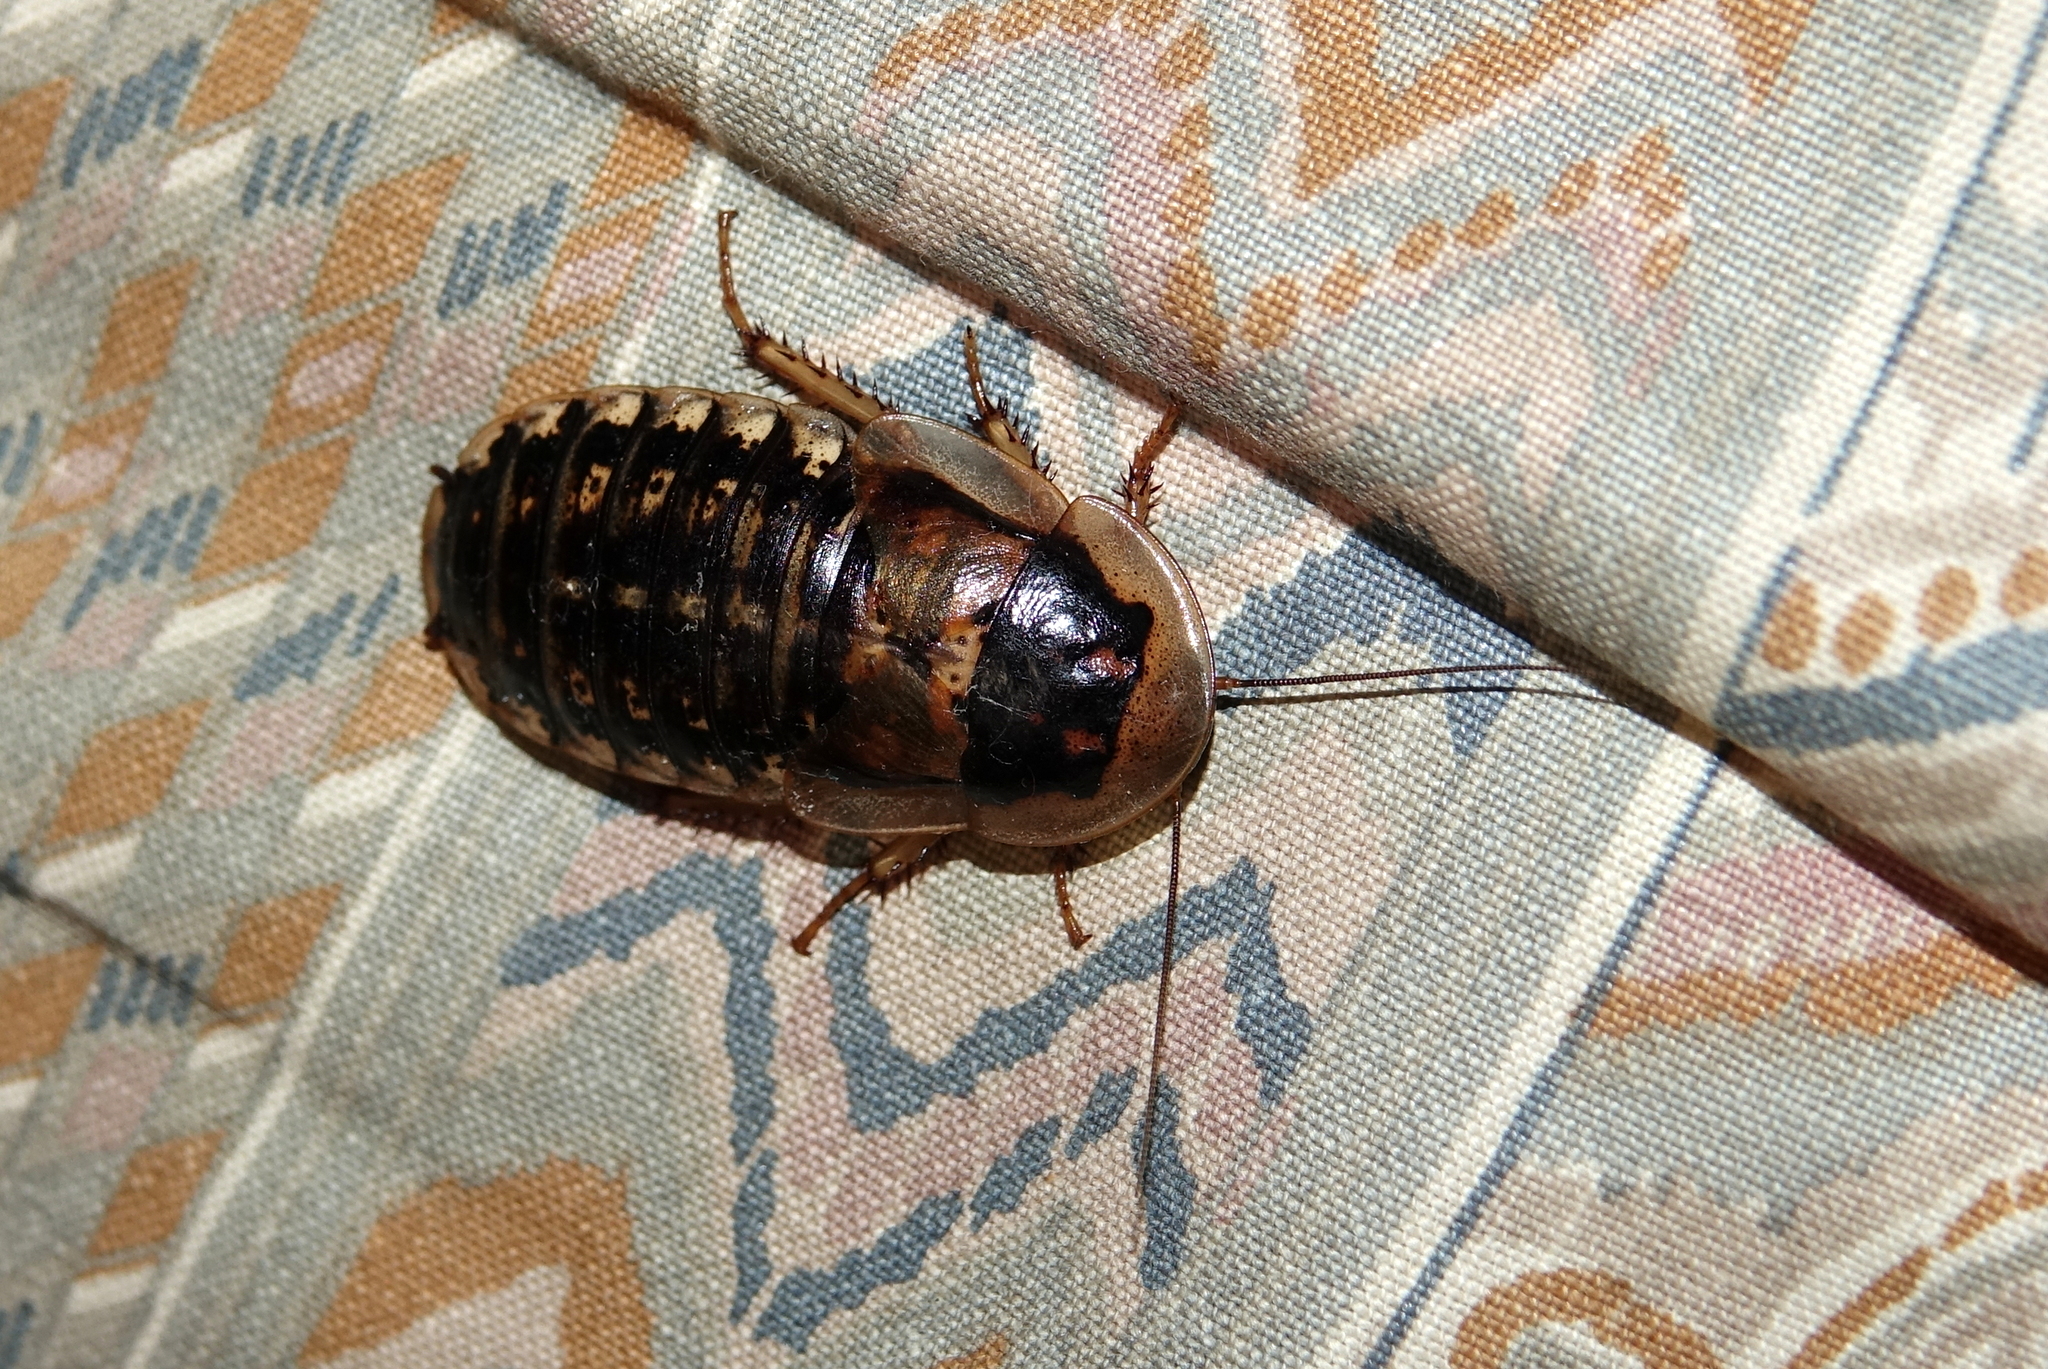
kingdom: Animalia
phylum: Arthropoda
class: Insecta
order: Blattodea
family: Blaberidae
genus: Blaptica
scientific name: Blaptica dubia
